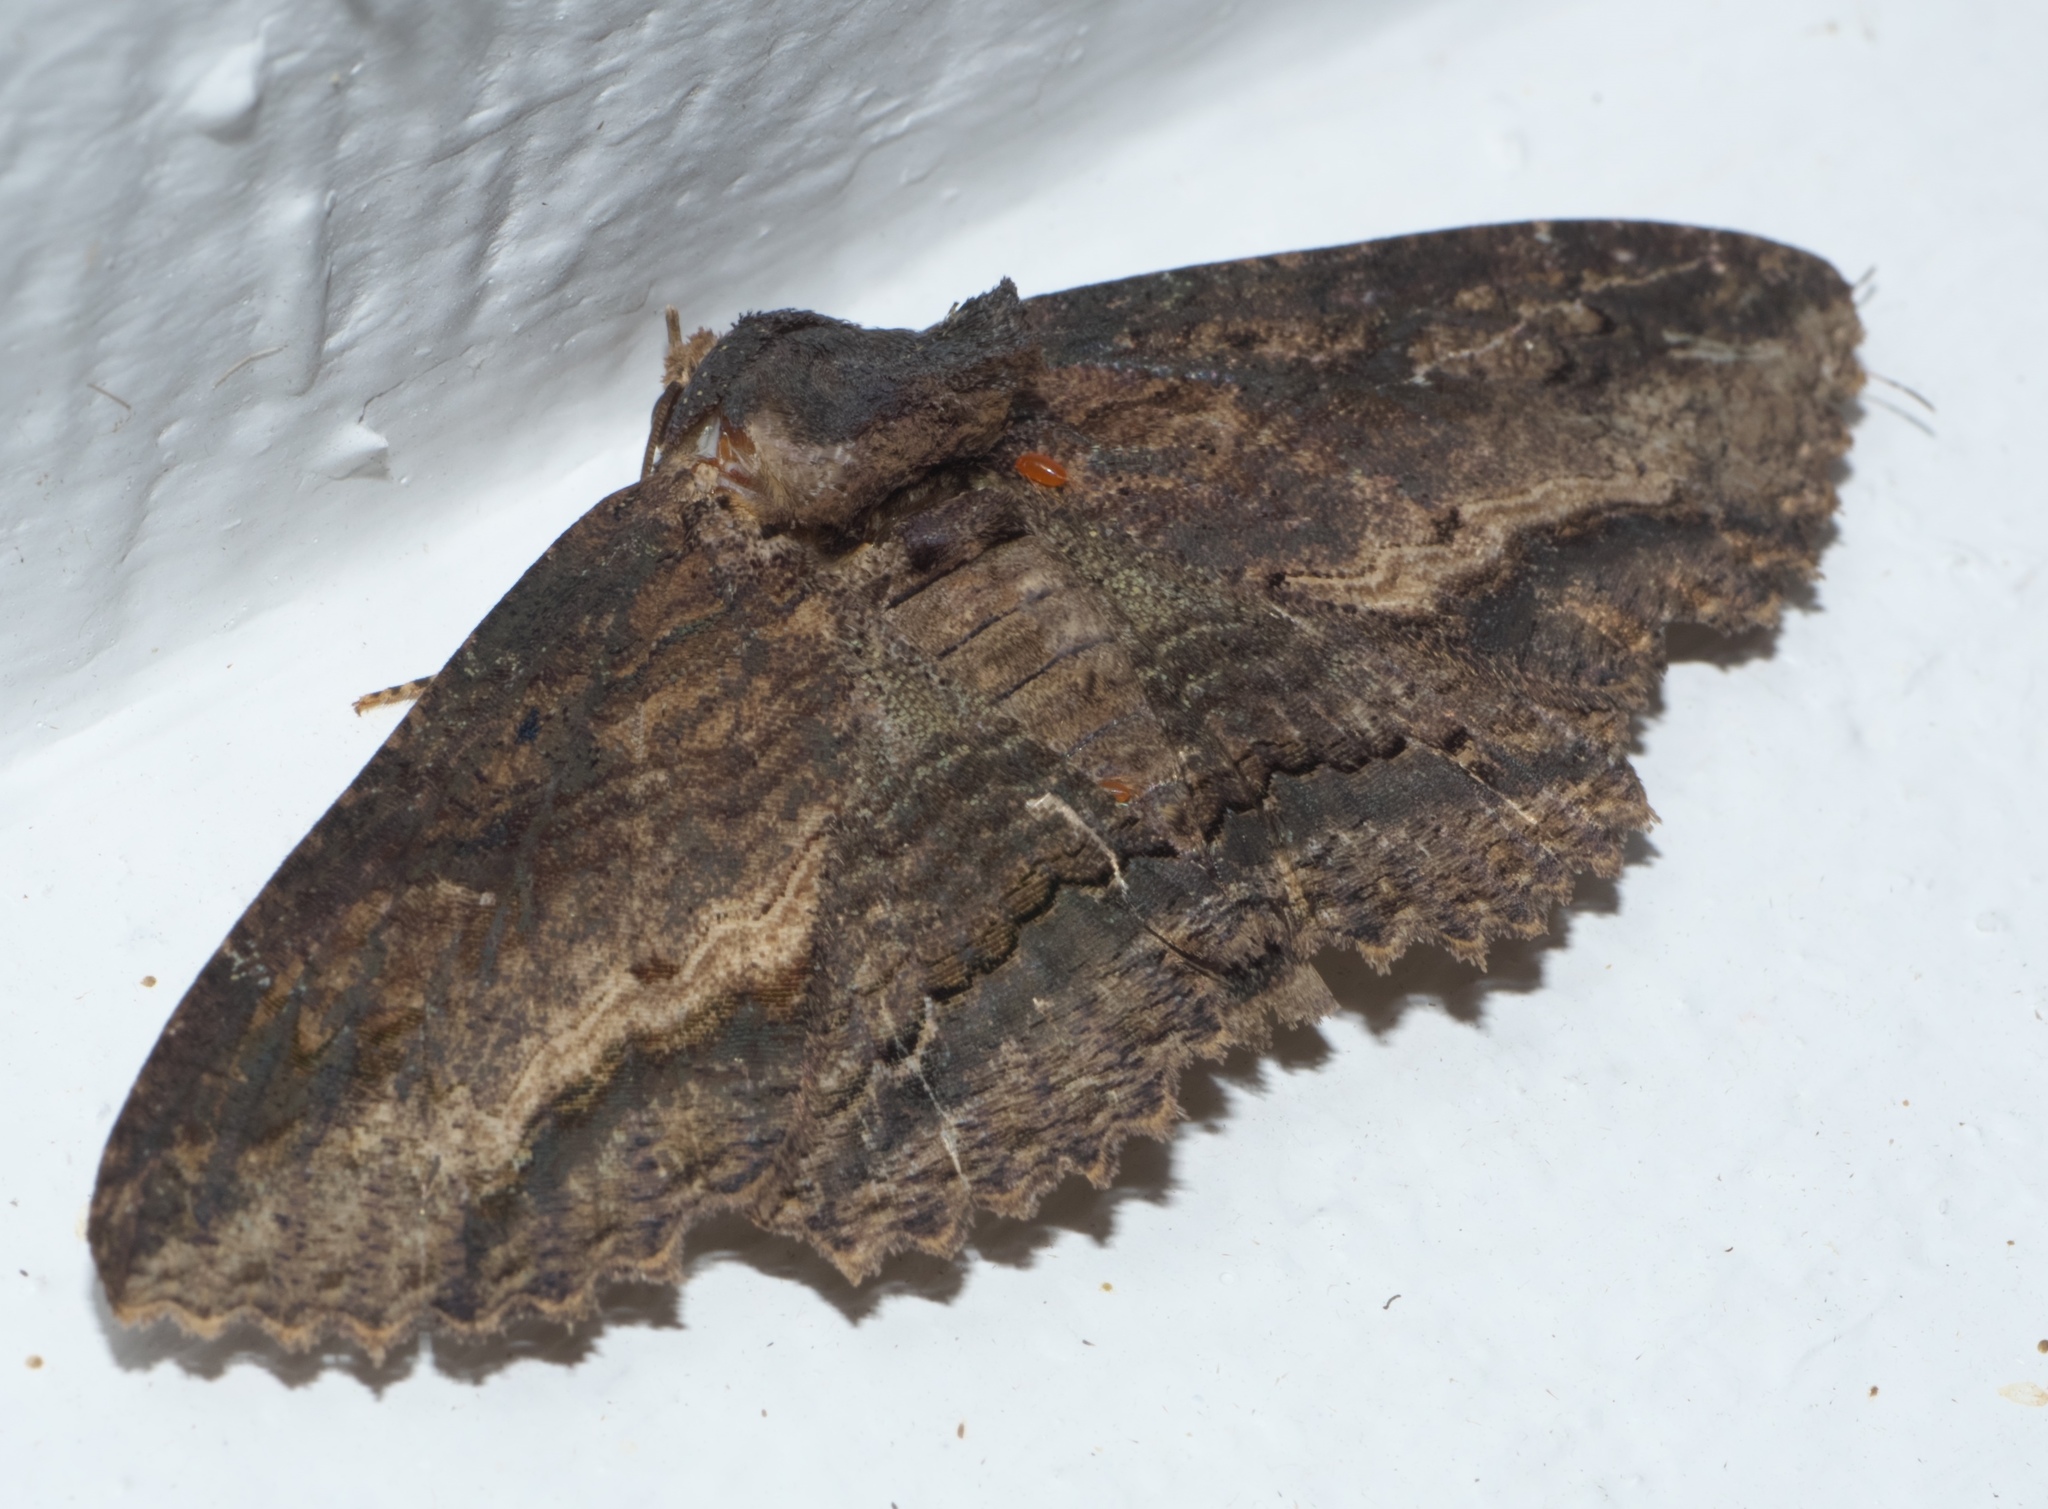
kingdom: Animalia
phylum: Arthropoda
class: Insecta
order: Lepidoptera
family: Erebidae
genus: Zale
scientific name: Zale lunata
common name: Lunate zale moth
